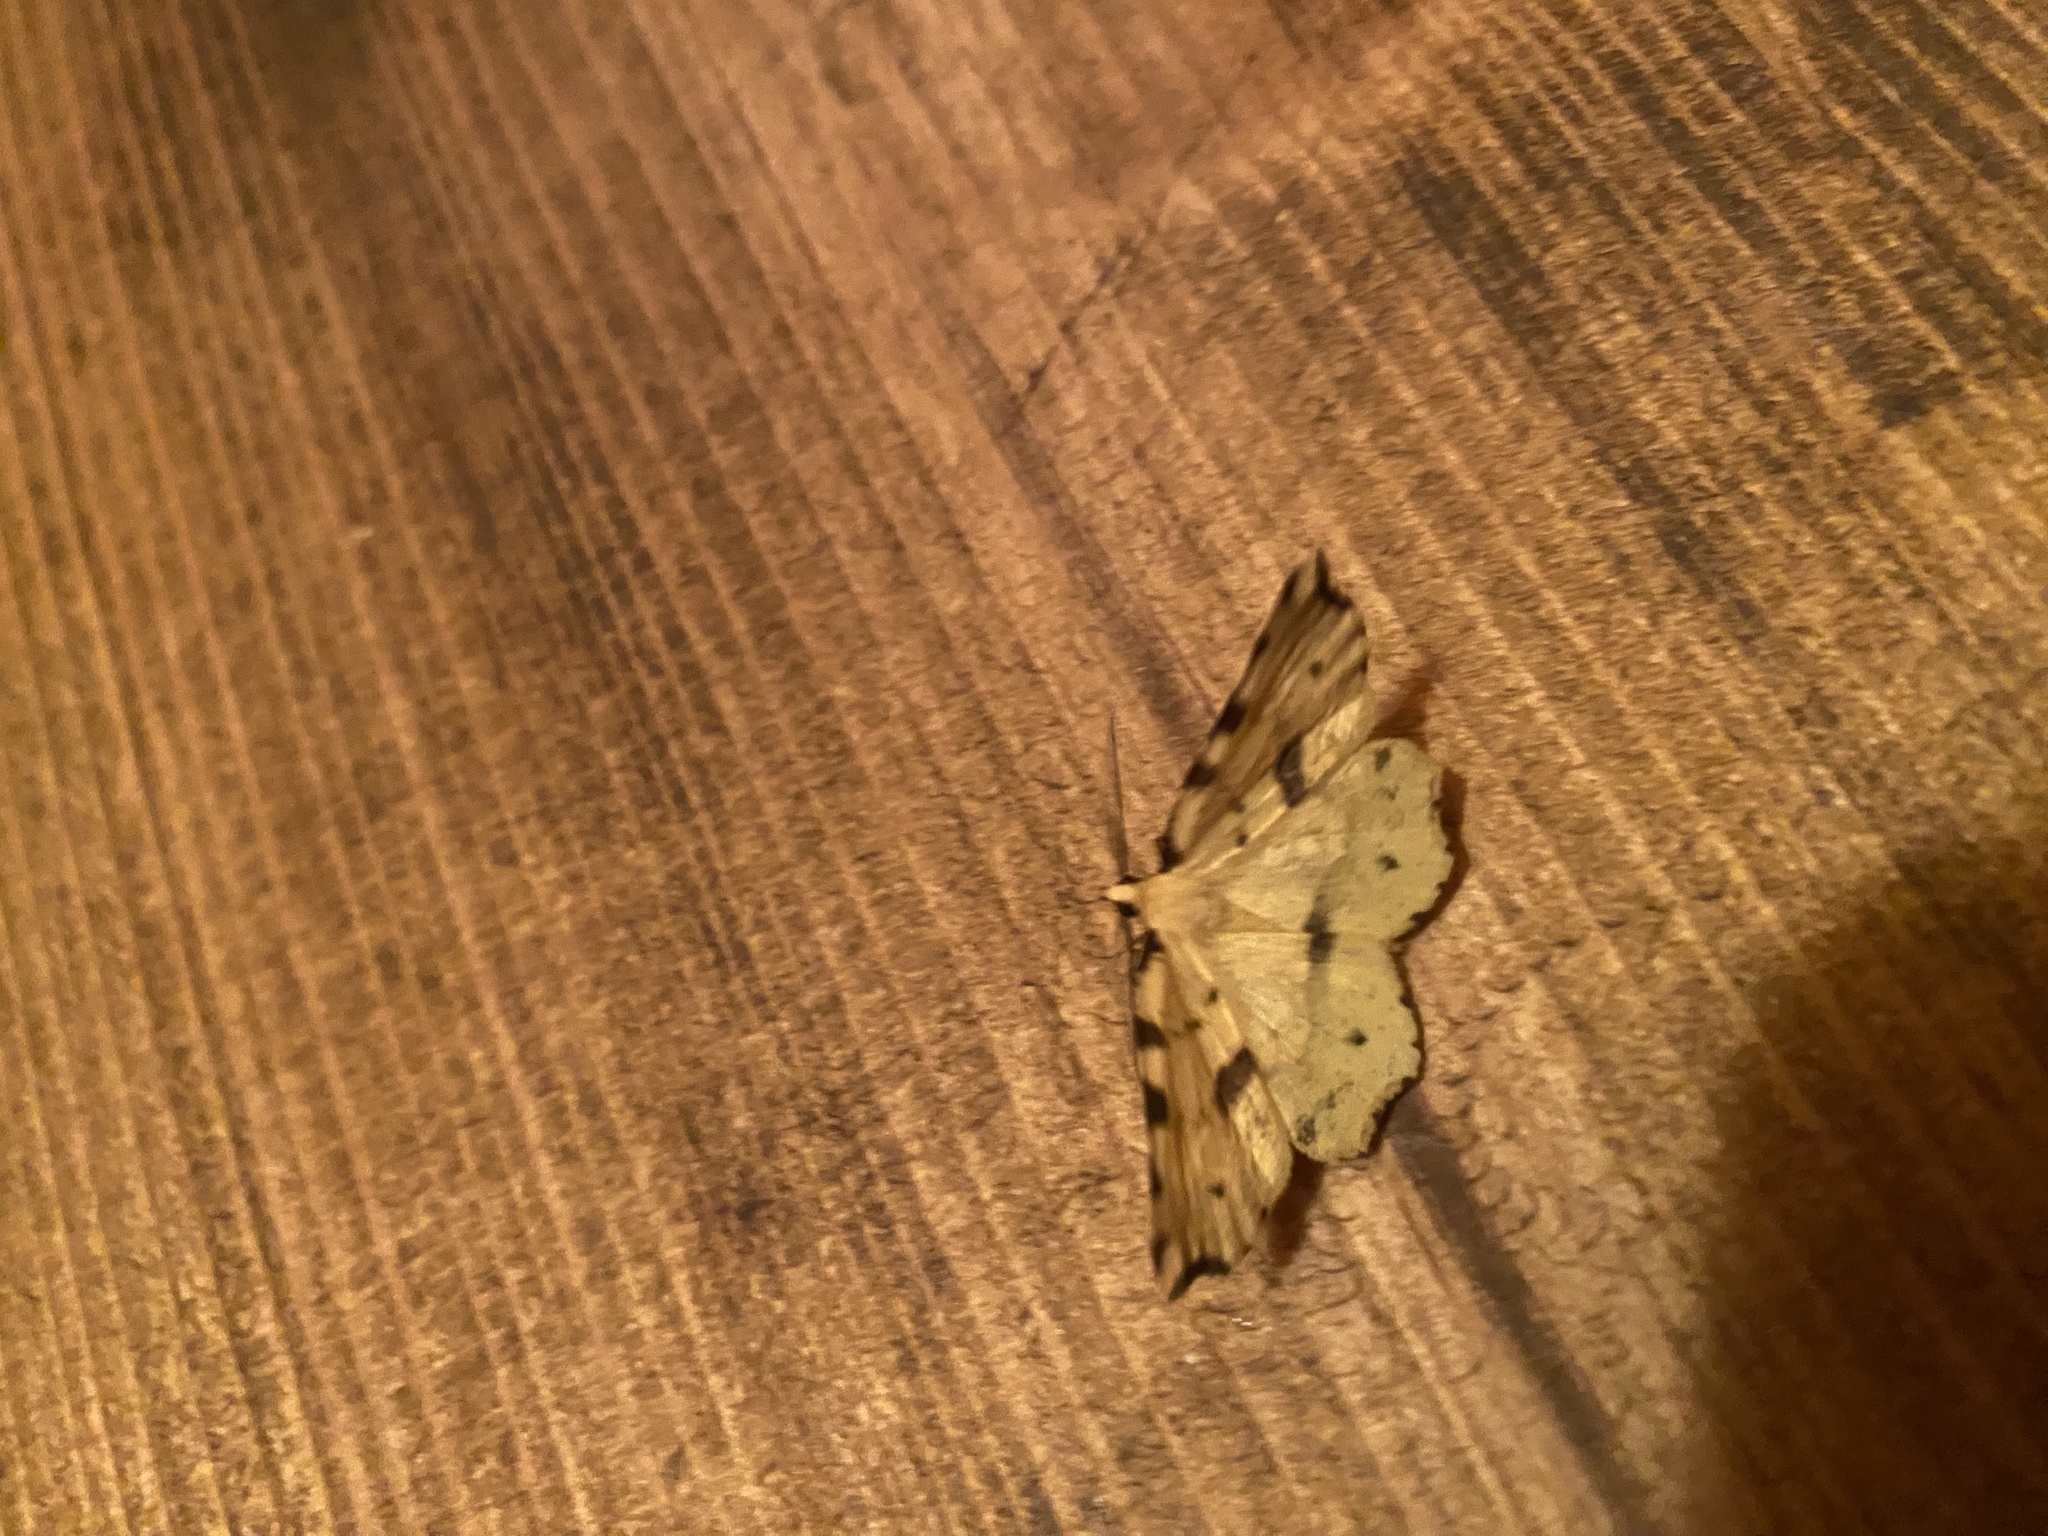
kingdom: Animalia
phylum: Arthropoda
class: Insecta
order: Lepidoptera
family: Geometridae
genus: Therapis
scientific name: Therapis flavicaria
